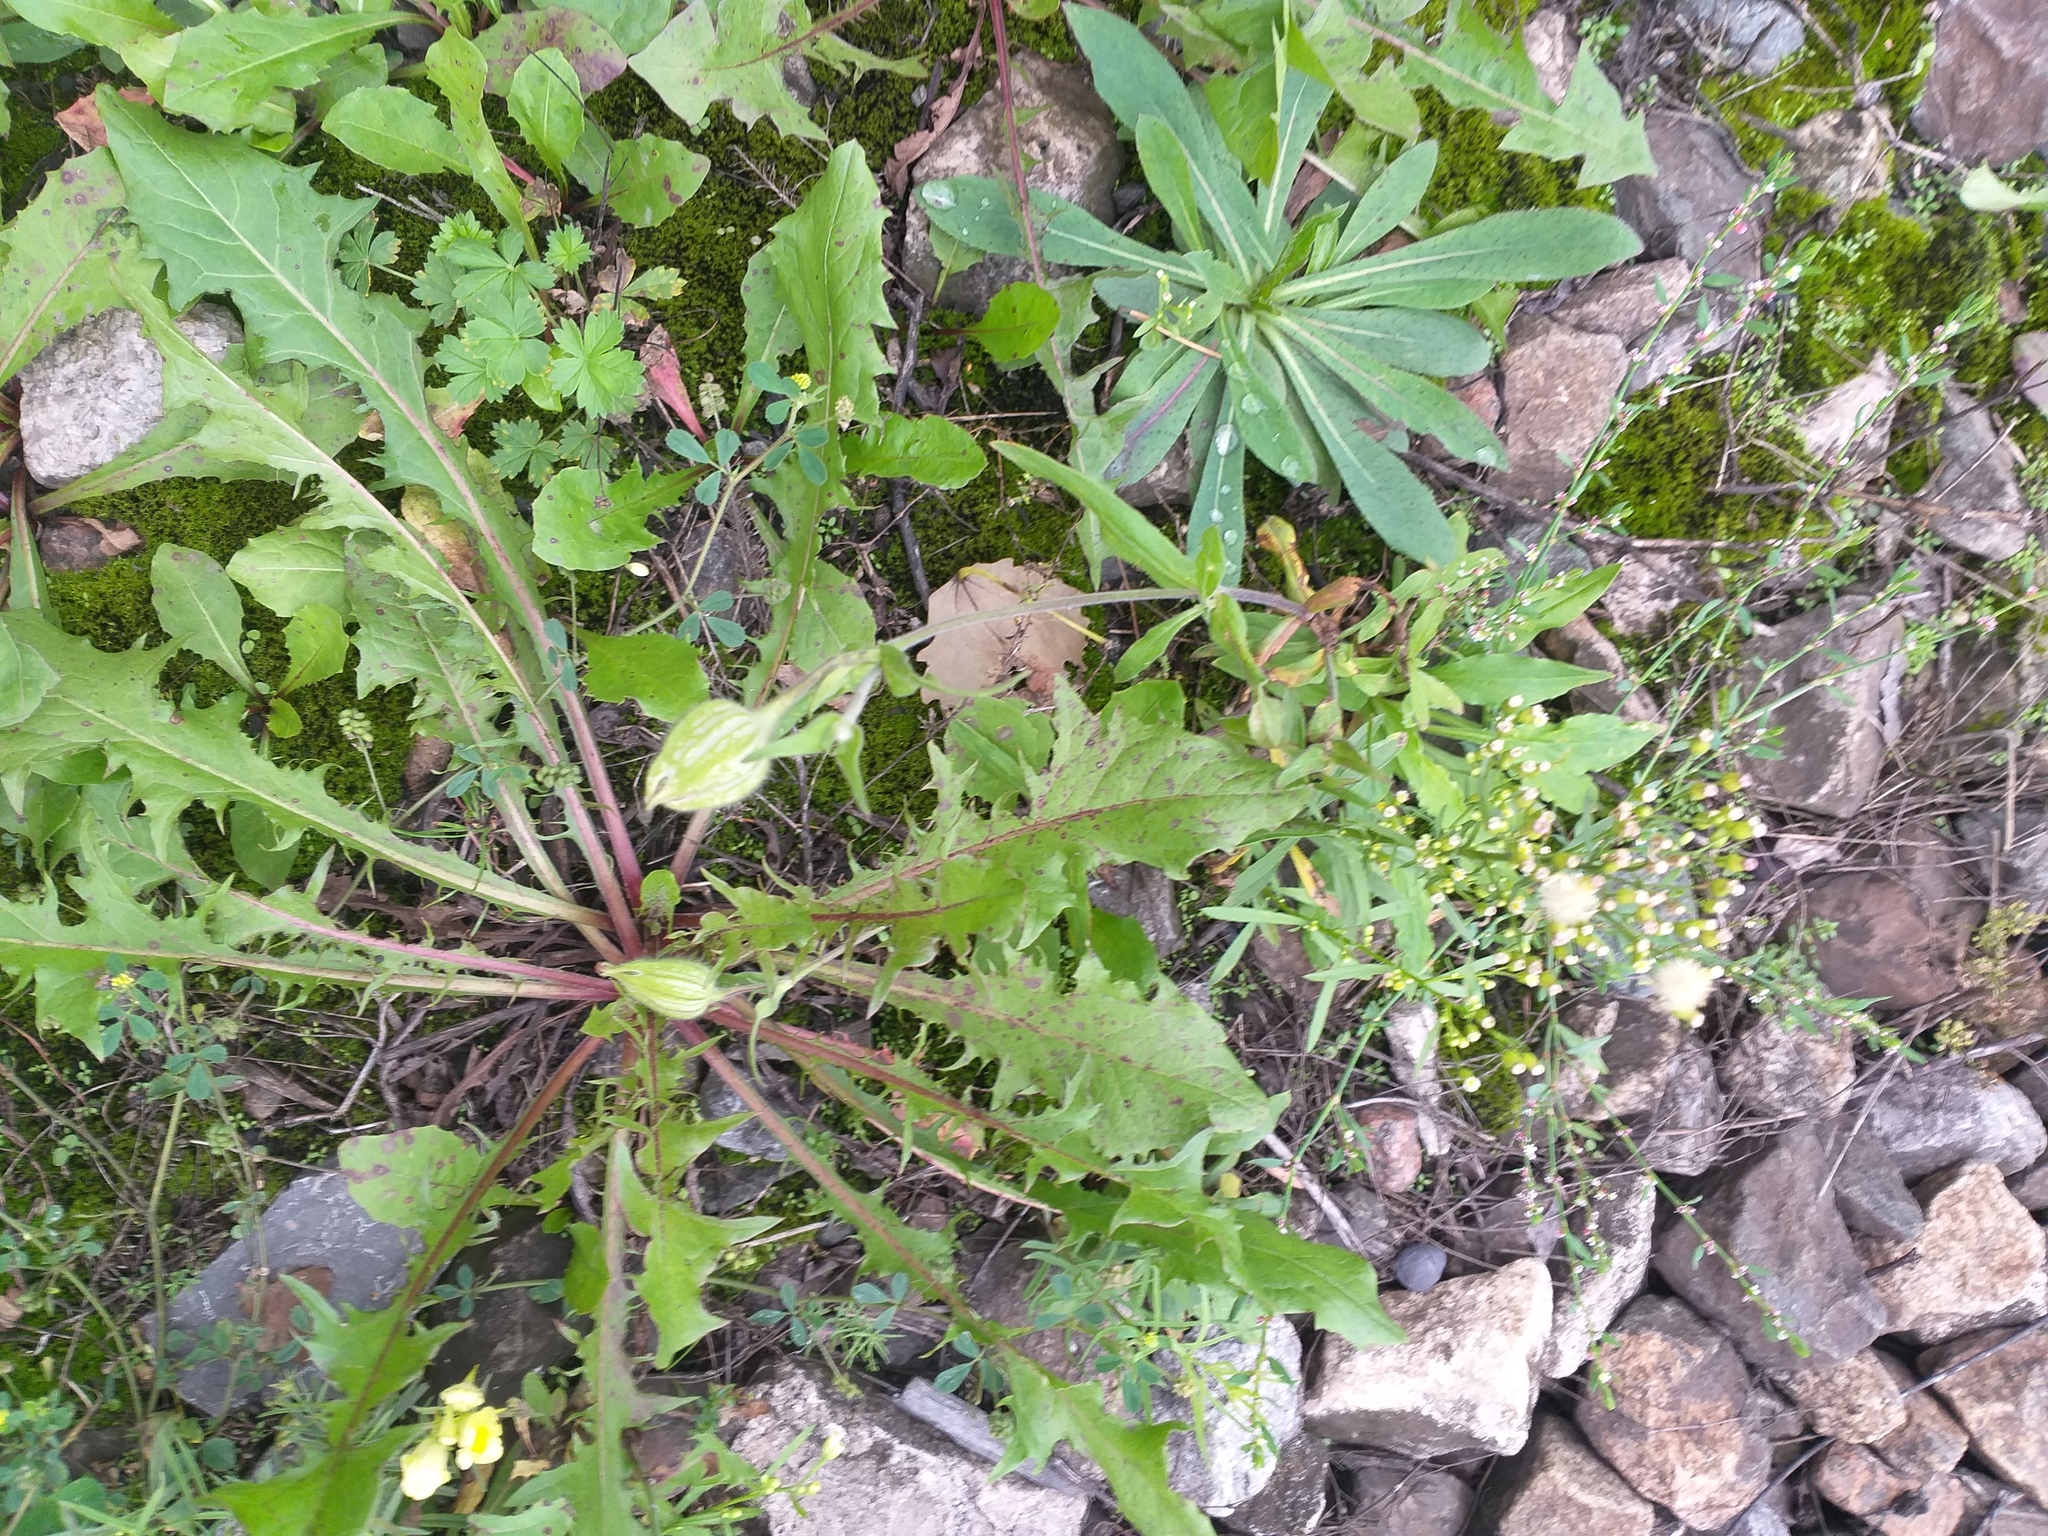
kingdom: Plantae
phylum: Tracheophyta
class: Magnoliopsida
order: Caryophyllales
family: Caryophyllaceae
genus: Silene
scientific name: Silene latifolia
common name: White campion
